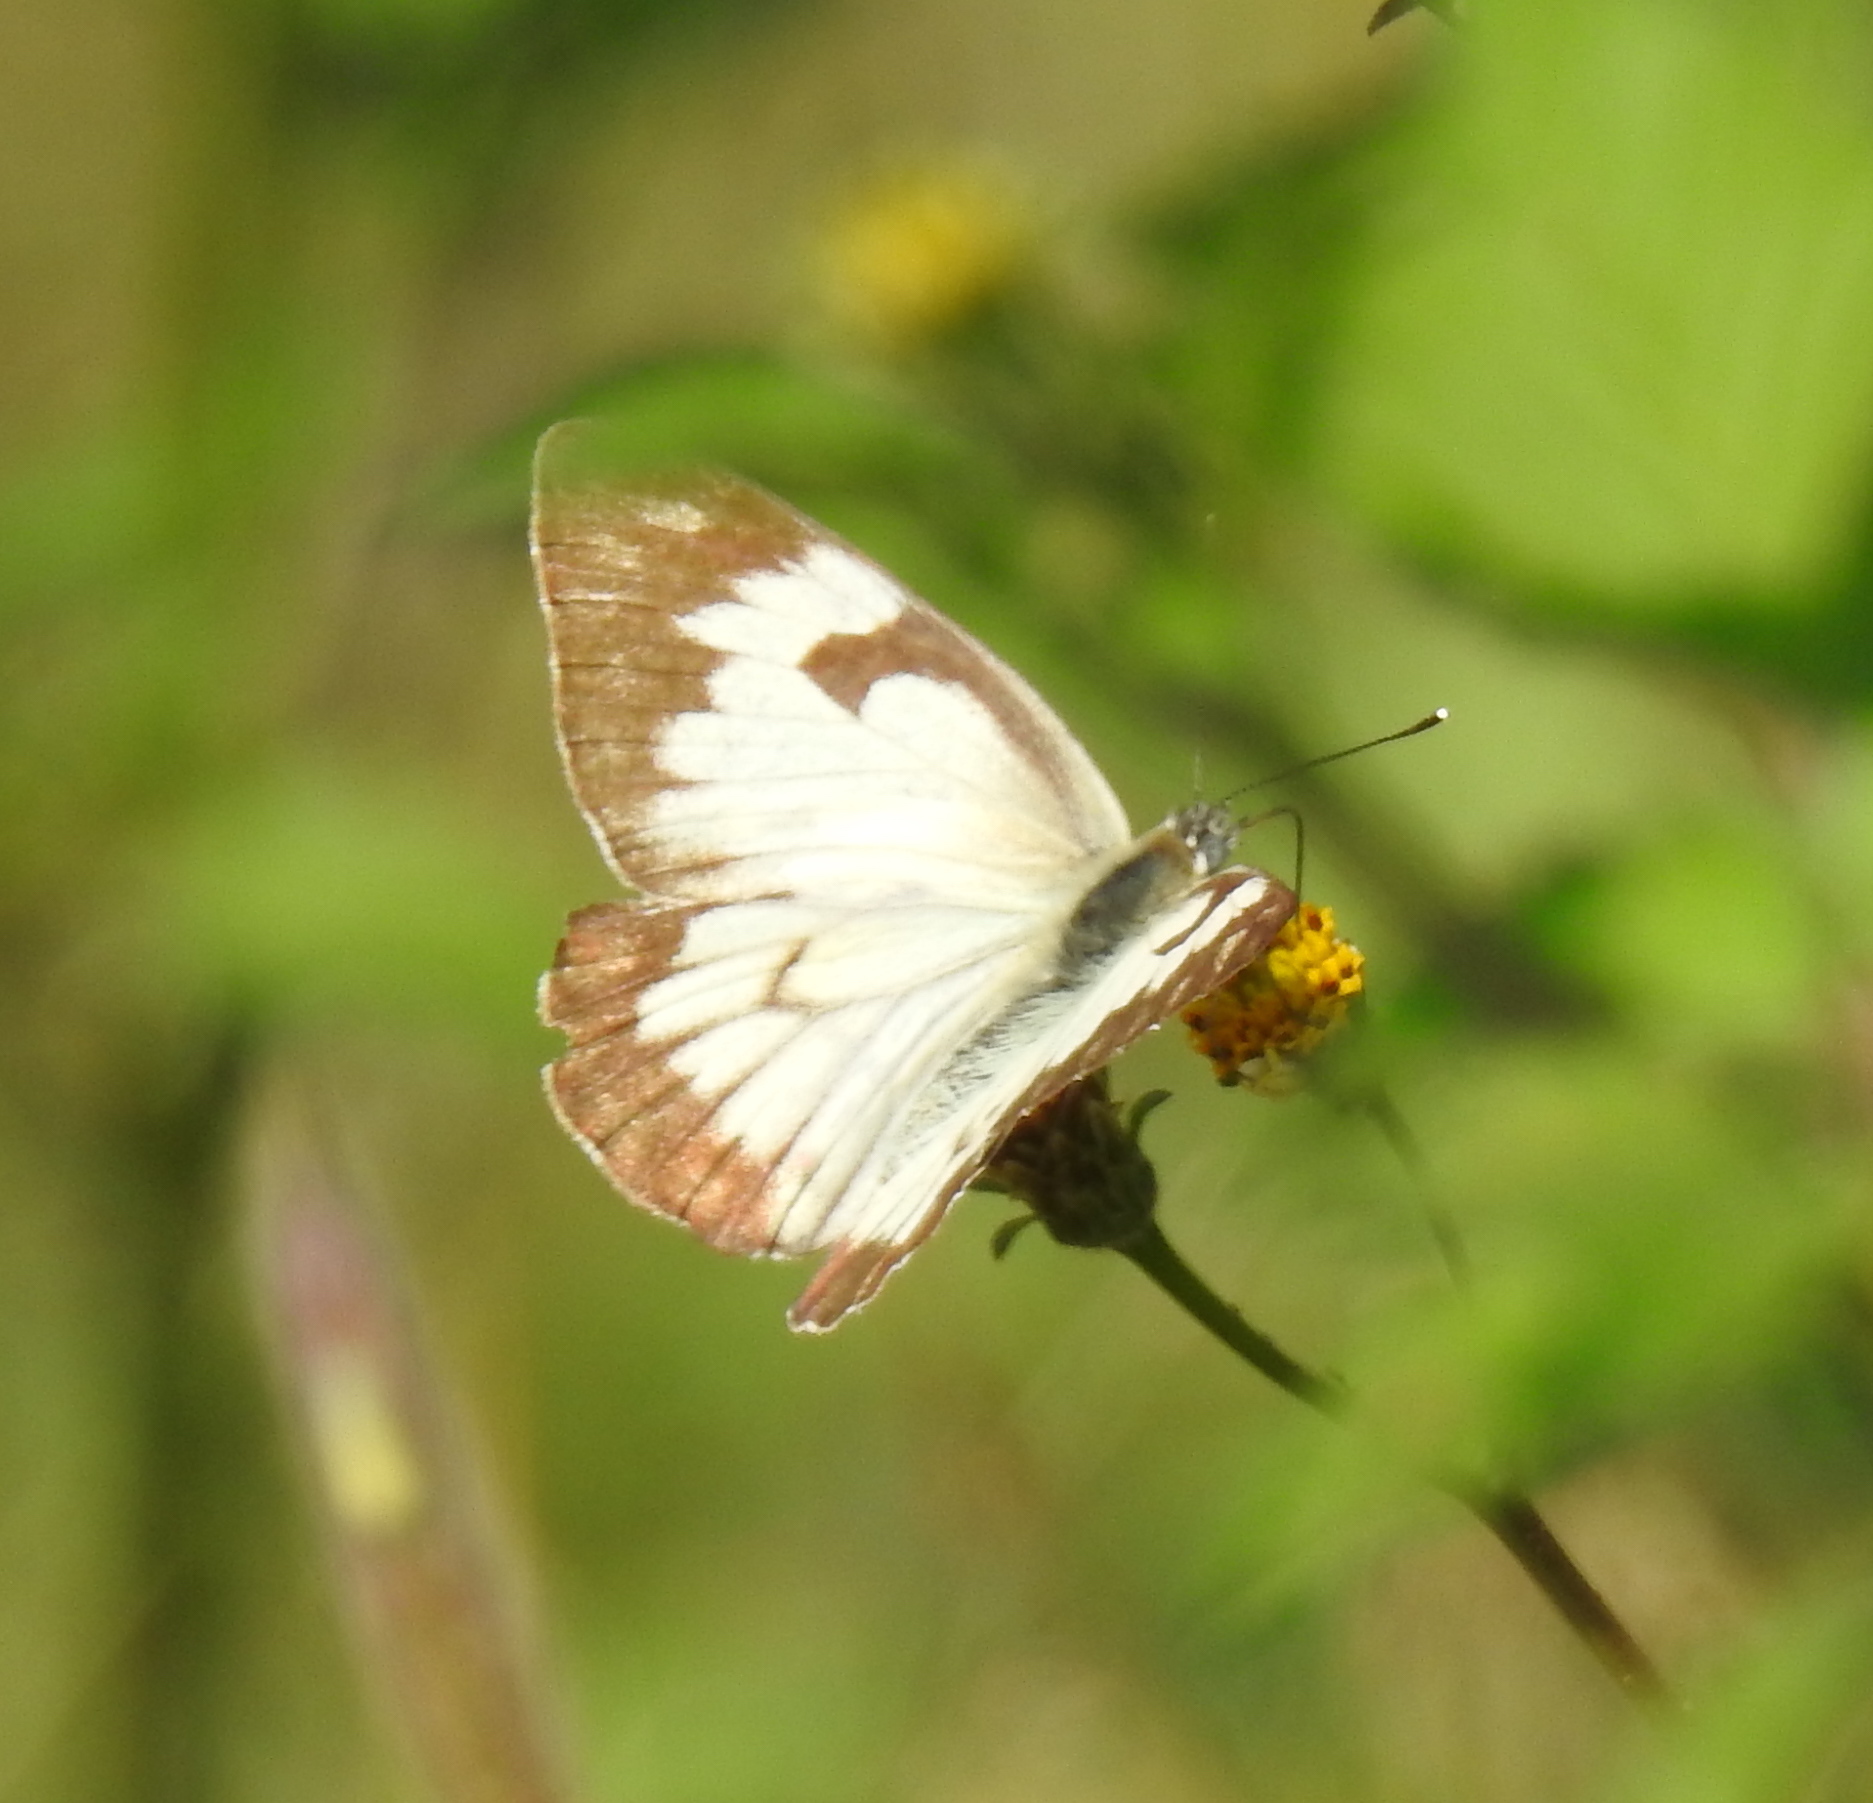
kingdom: Animalia
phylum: Arthropoda
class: Insecta
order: Lepidoptera
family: Pieridae
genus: Belenois
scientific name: Belenois aurota
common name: Brown-veined white
